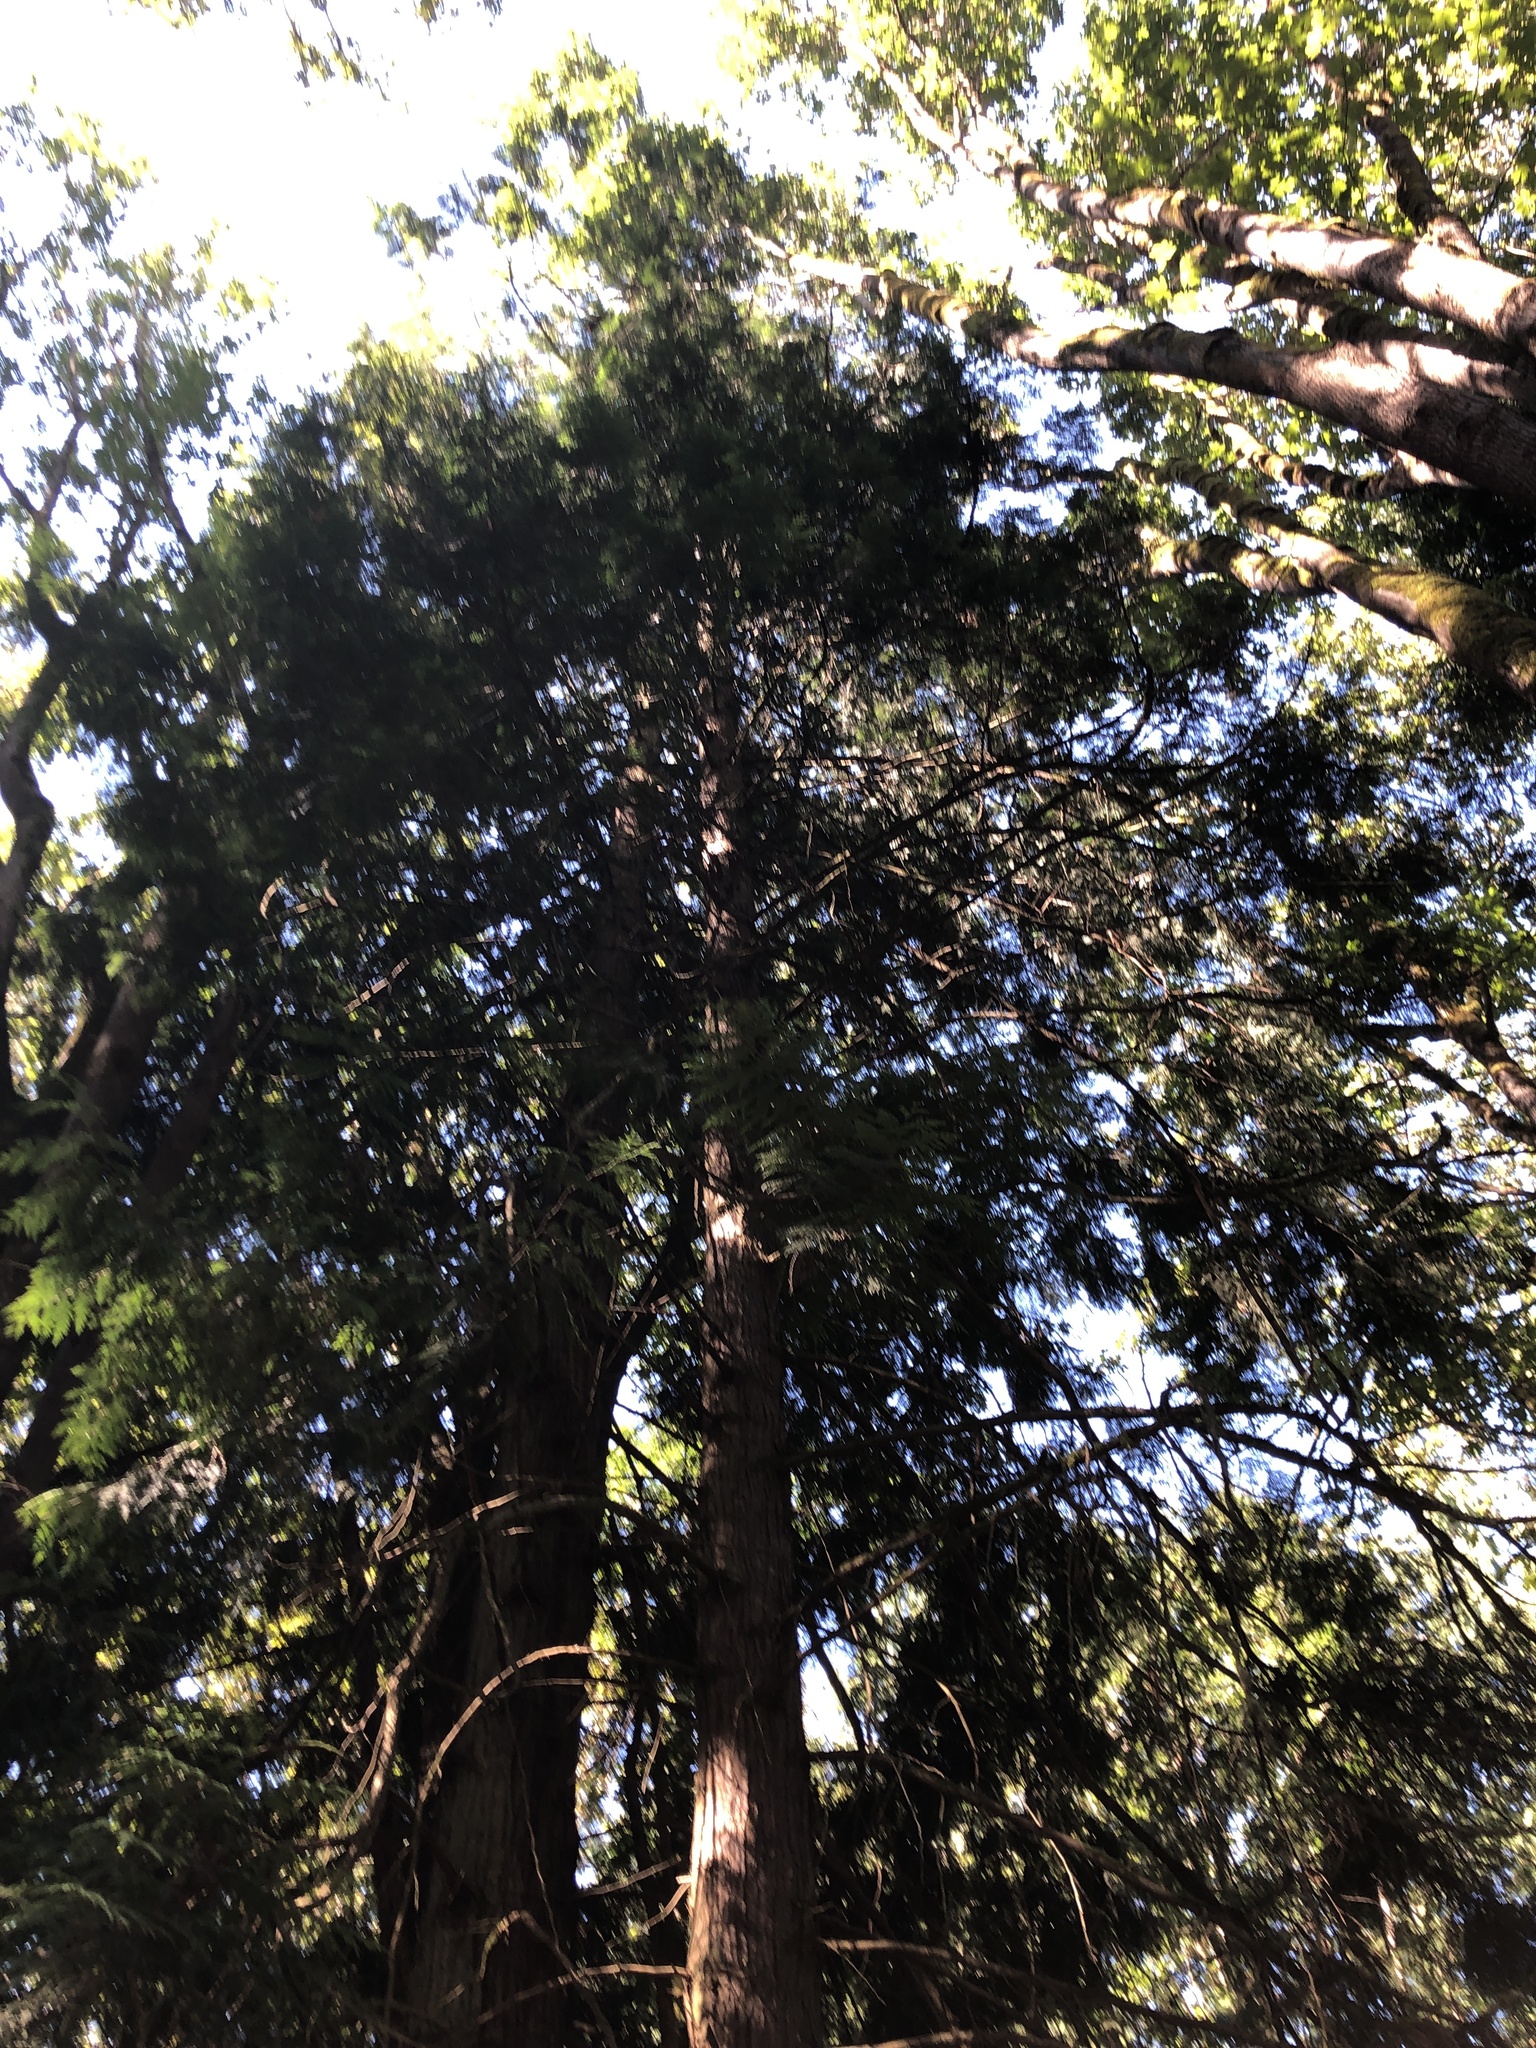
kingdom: Plantae
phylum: Tracheophyta
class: Pinopsida
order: Pinales
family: Cupressaceae
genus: Thuja
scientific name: Thuja plicata
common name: Western red-cedar
